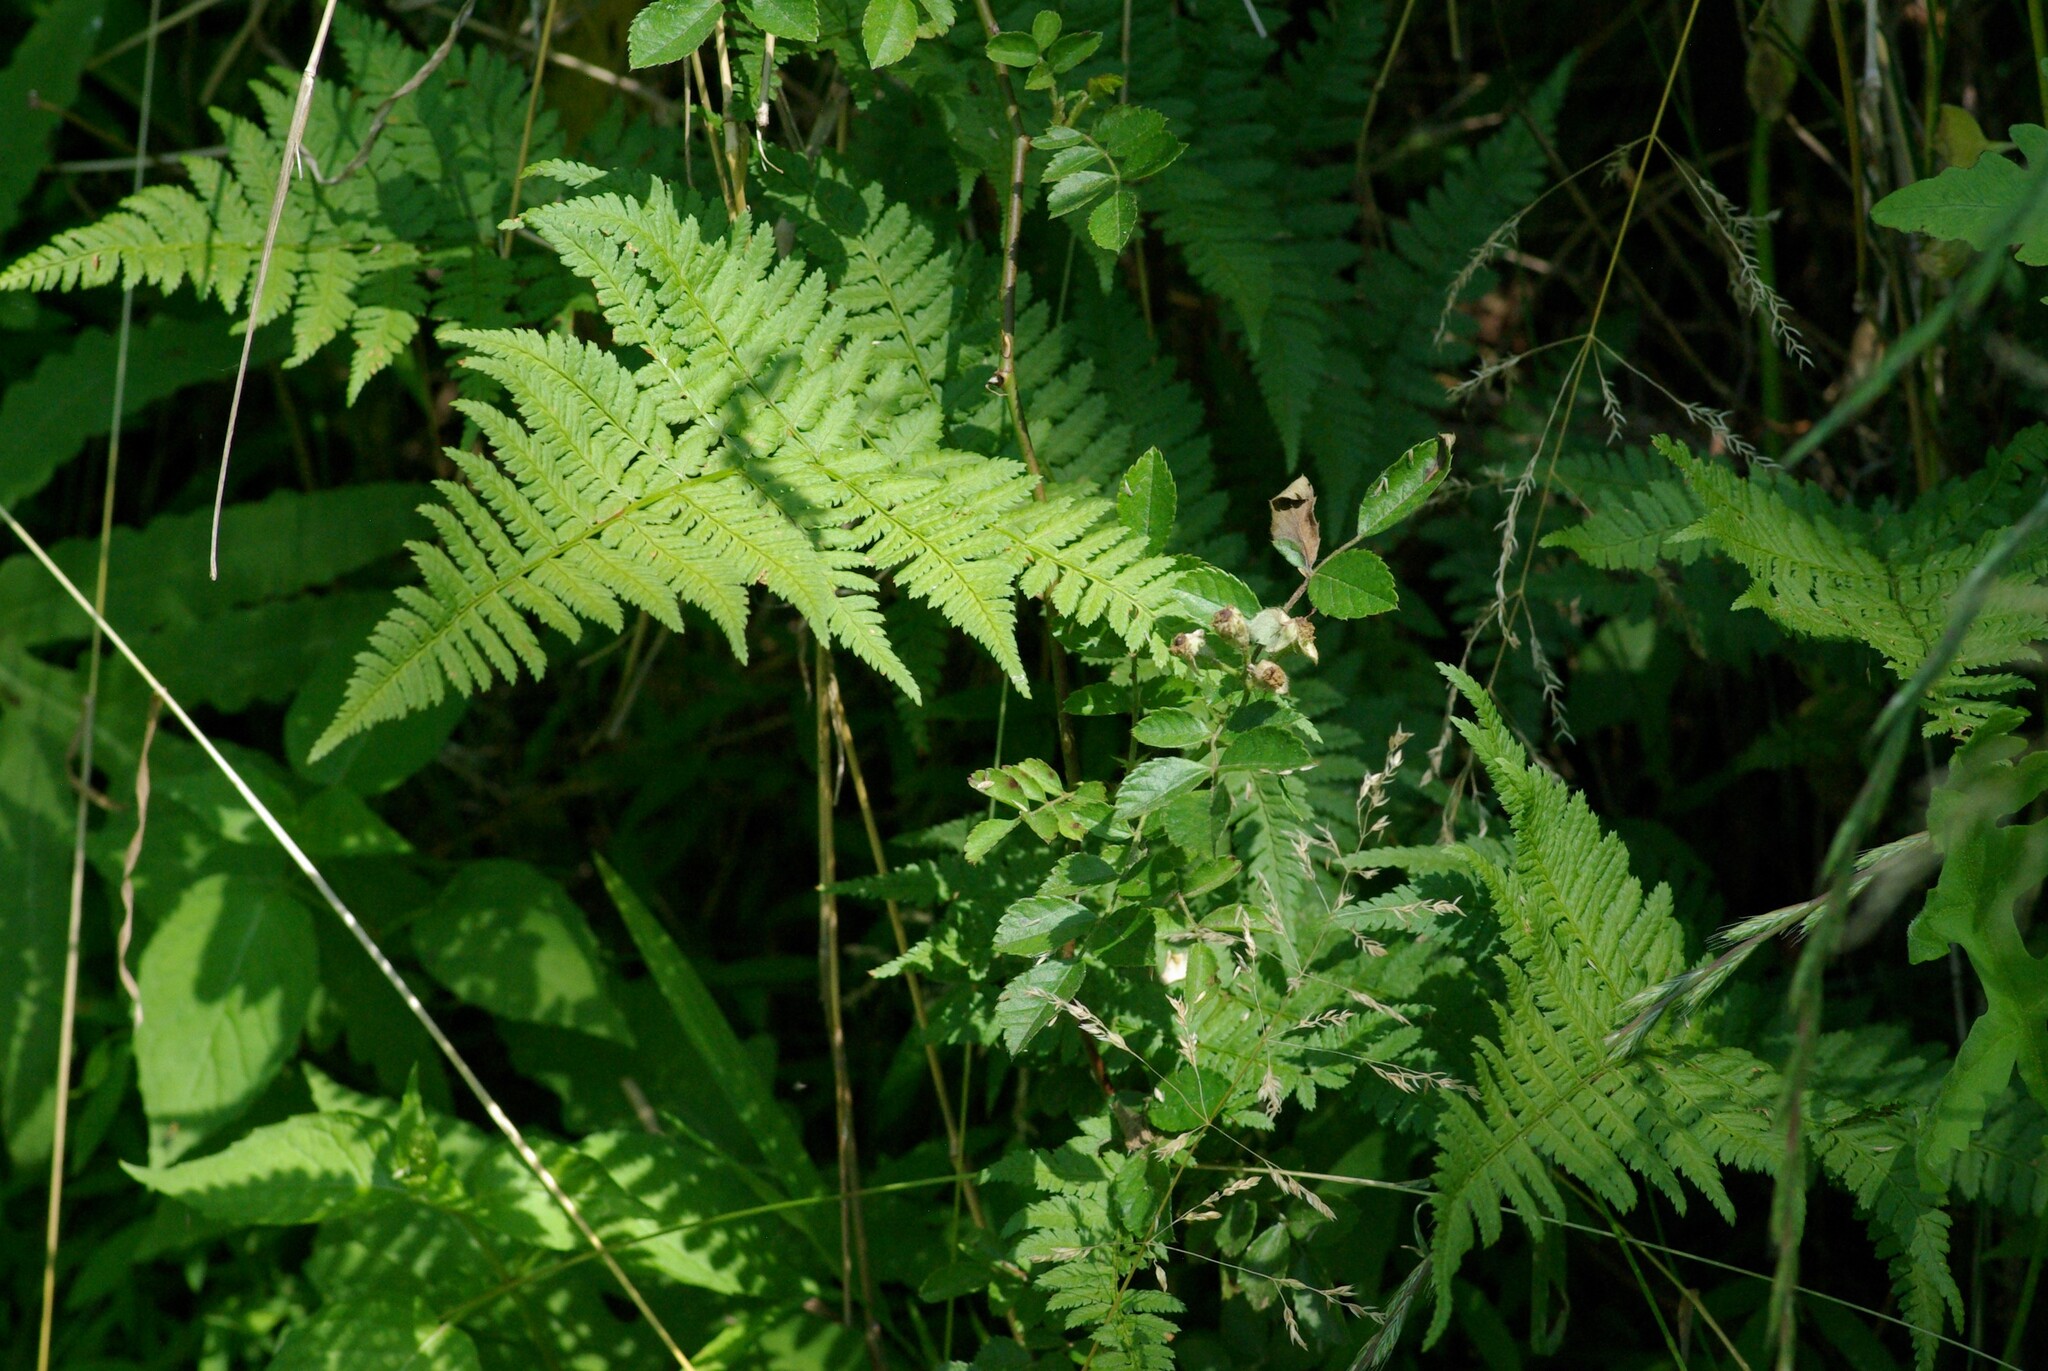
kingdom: Plantae
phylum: Tracheophyta
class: Polypodiopsida
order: Polypodiales
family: Dryopteridaceae
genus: Dryopteris
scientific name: Dryopteris intermedia
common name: Evergreen wood fern
